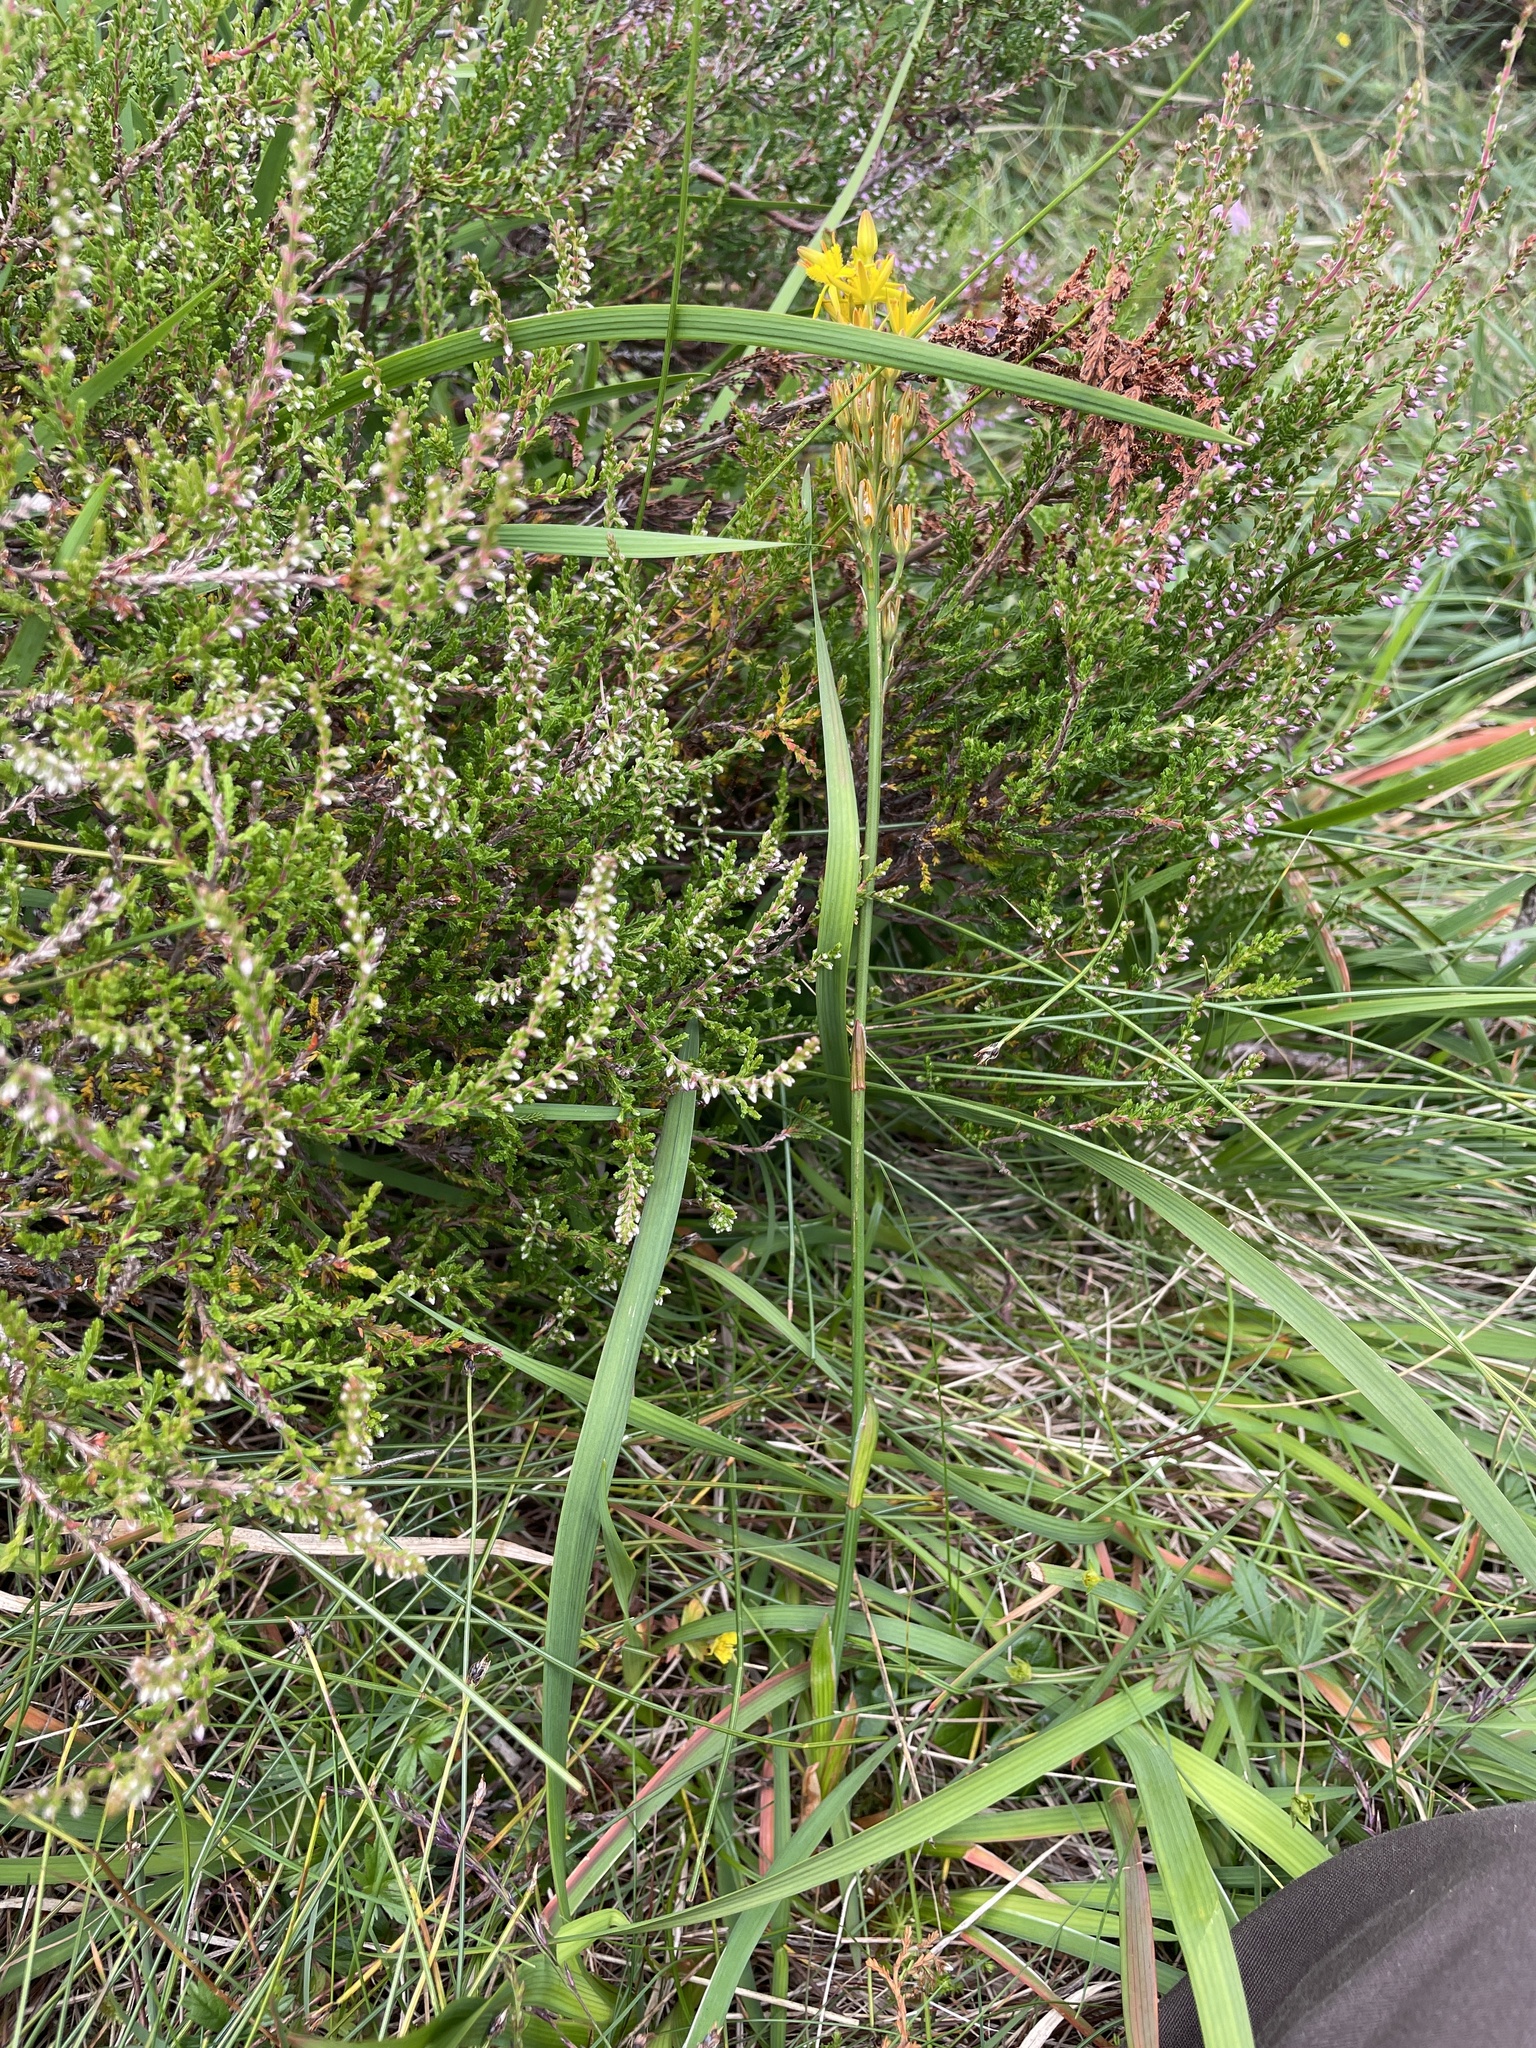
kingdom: Plantae
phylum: Tracheophyta
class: Liliopsida
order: Dioscoreales
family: Nartheciaceae
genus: Narthecium
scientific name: Narthecium ossifragum
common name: Bog asphodel
